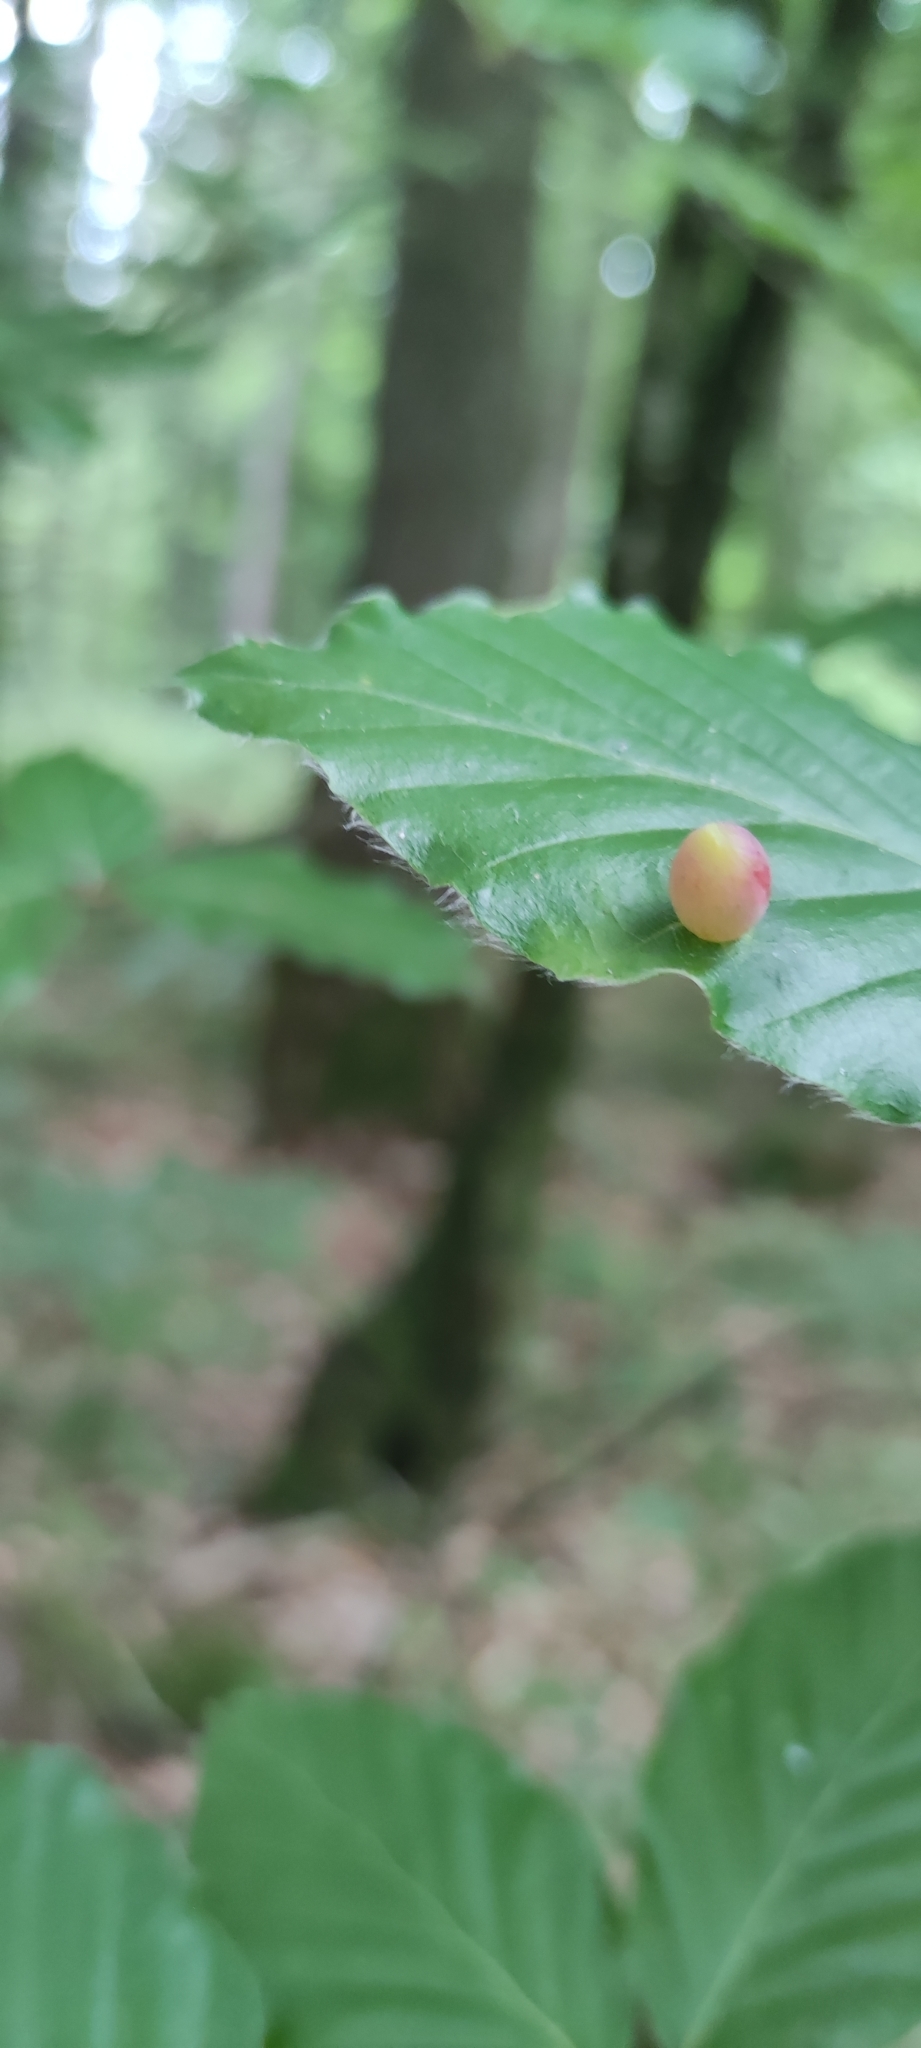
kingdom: Animalia
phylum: Arthropoda
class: Insecta
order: Diptera
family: Cecidomyiidae
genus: Mikiola
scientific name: Mikiola fagi
